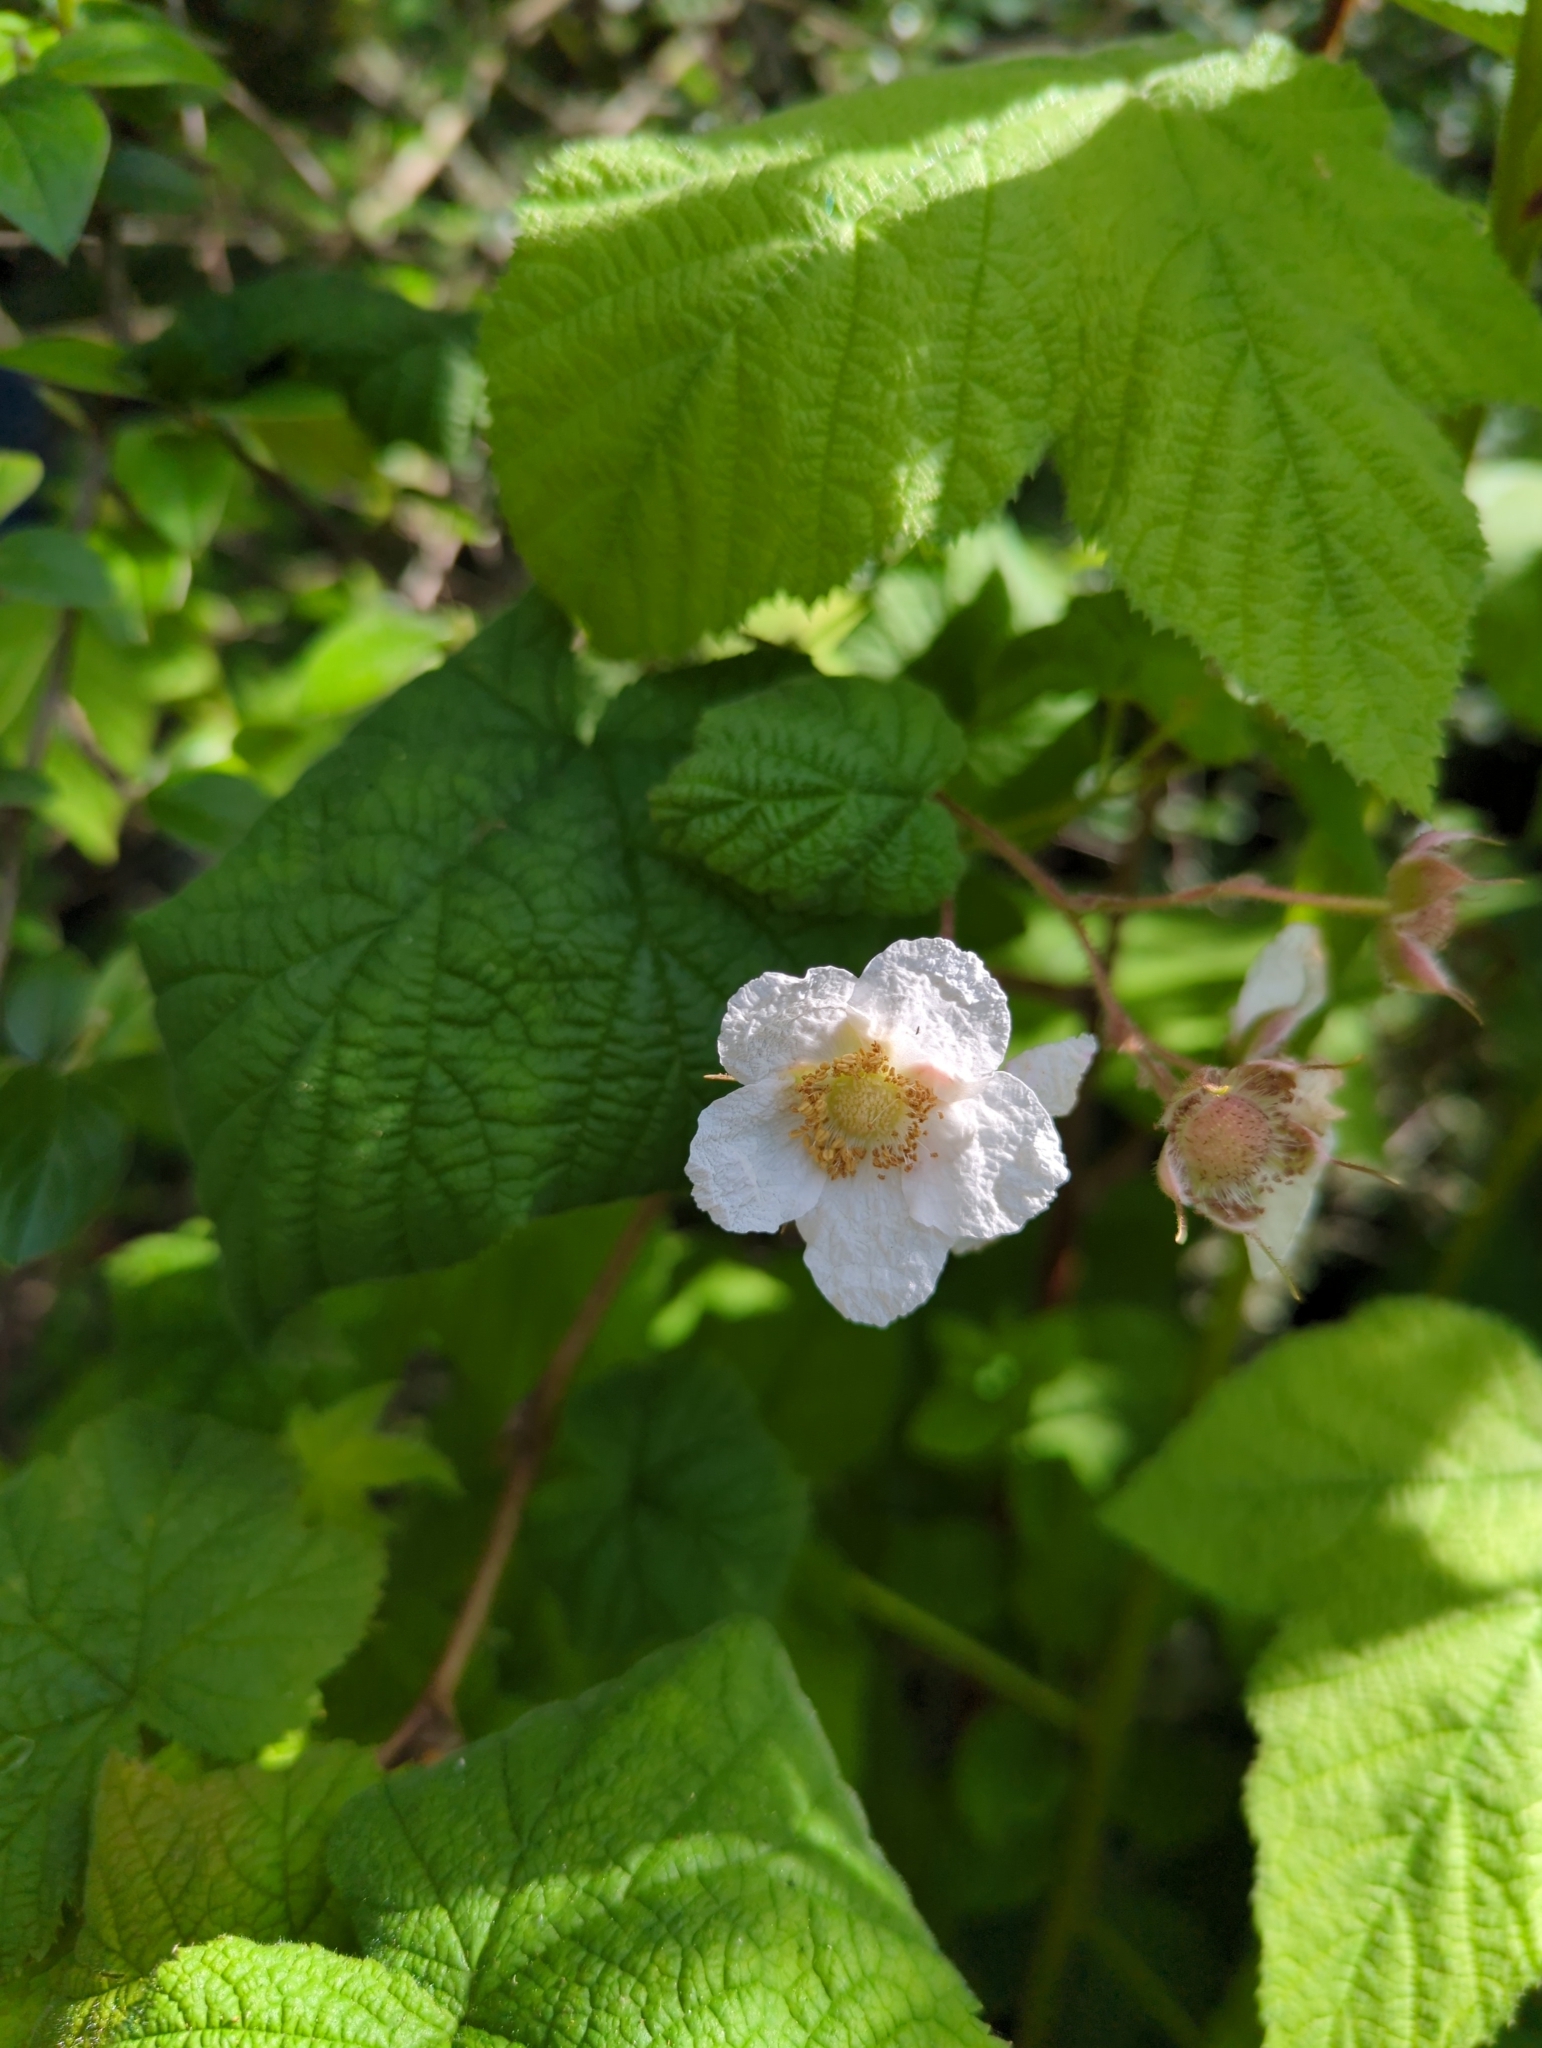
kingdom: Plantae
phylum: Tracheophyta
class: Magnoliopsida
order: Rosales
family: Rosaceae
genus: Rubus
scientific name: Rubus parviflorus
